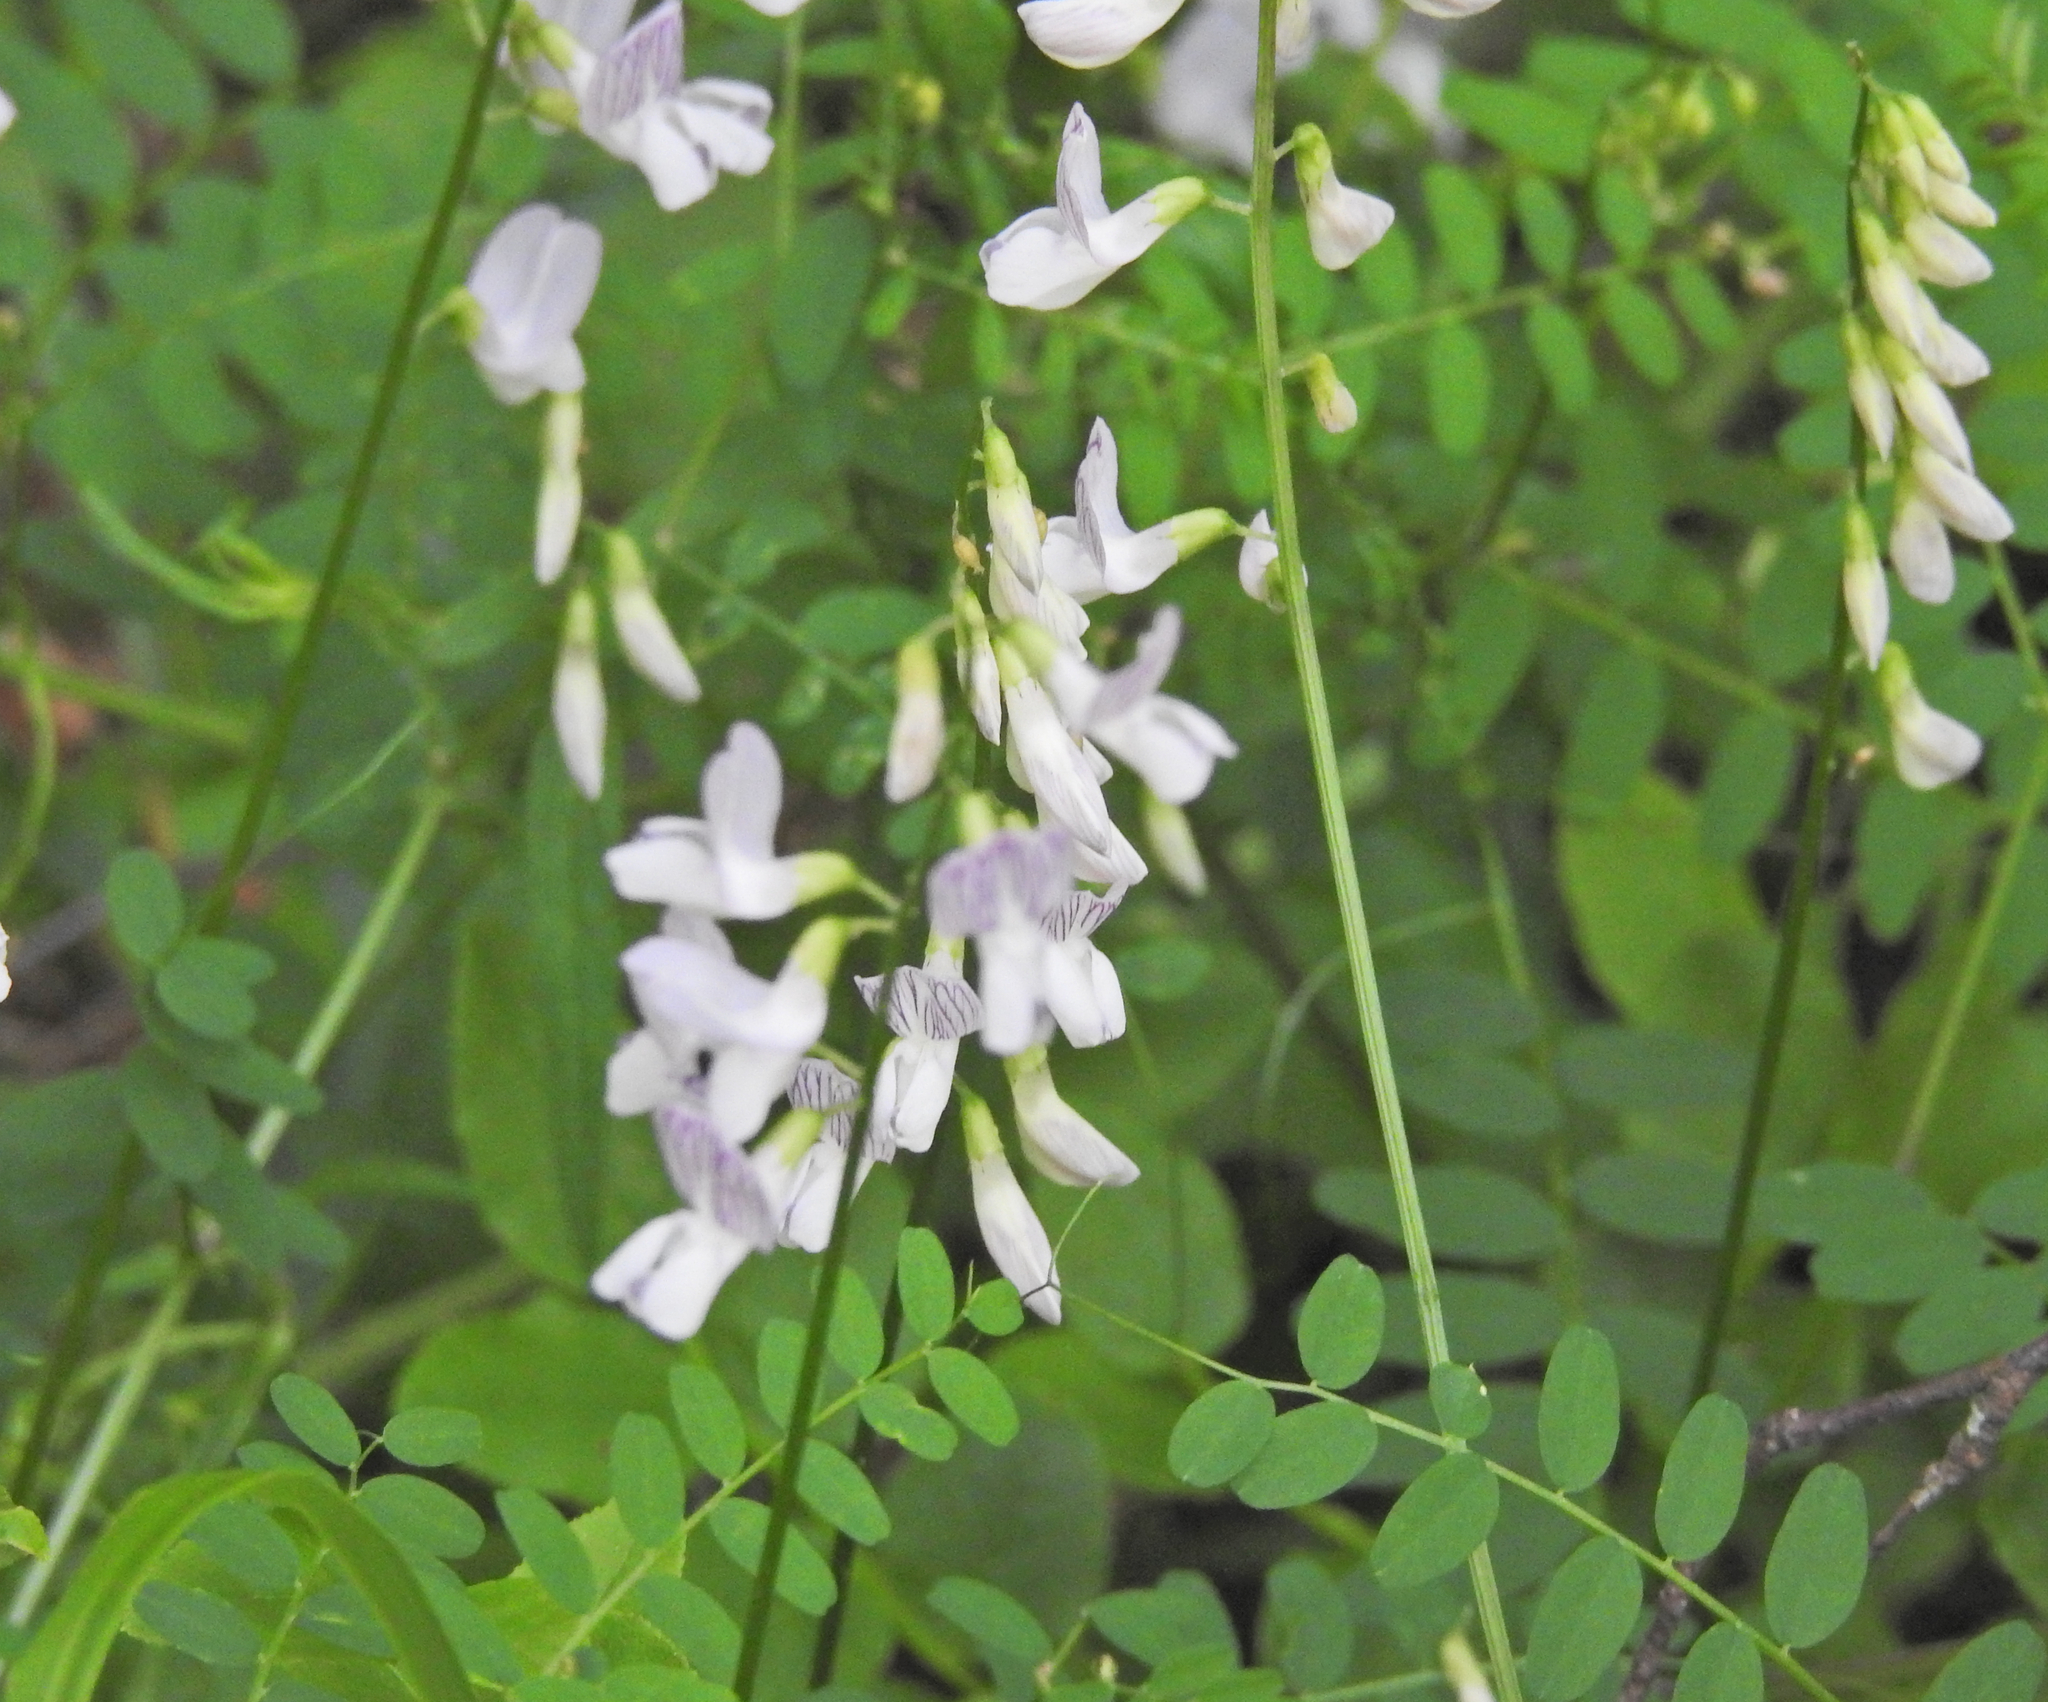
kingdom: Plantae
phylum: Tracheophyta
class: Magnoliopsida
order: Fabales
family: Fabaceae
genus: Vicia
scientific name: Vicia sylvatica
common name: Wood vetch
